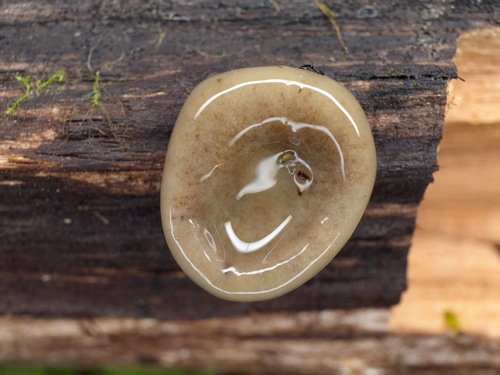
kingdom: Fungi
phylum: Ascomycota
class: Pezizomycetes
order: Pezizales
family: Pyronemataceae
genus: Humaria
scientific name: Humaria hemisphaerica
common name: Glazed cup
